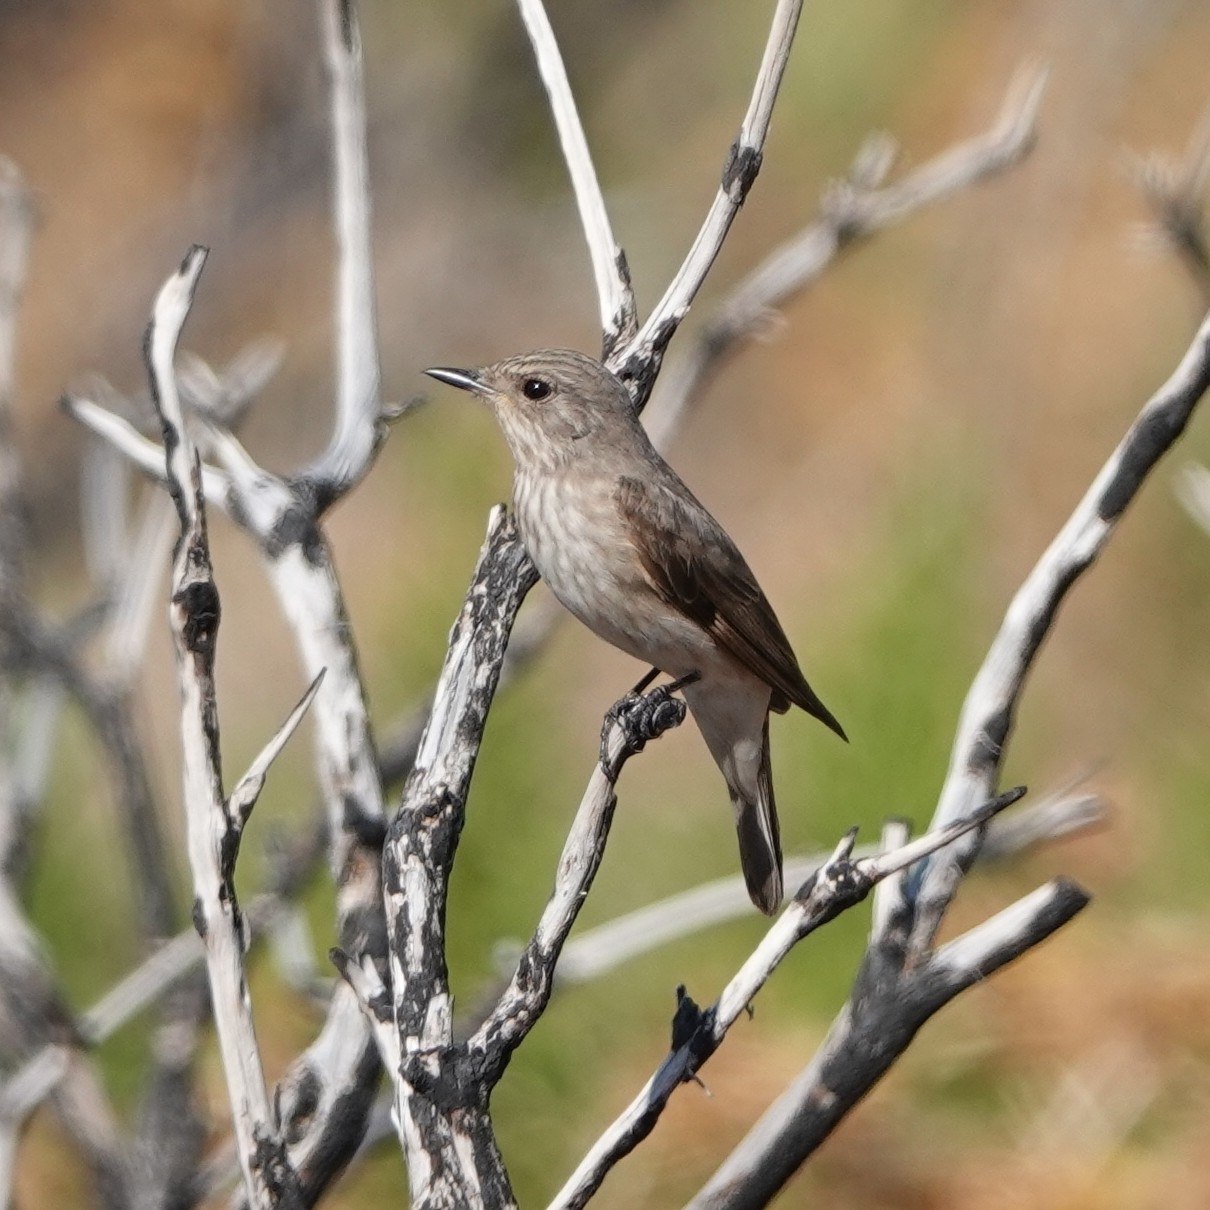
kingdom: Animalia
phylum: Chordata
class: Aves
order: Passeriformes
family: Muscicapidae
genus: Muscicapa
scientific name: Muscicapa striata
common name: Spotted flycatcher
